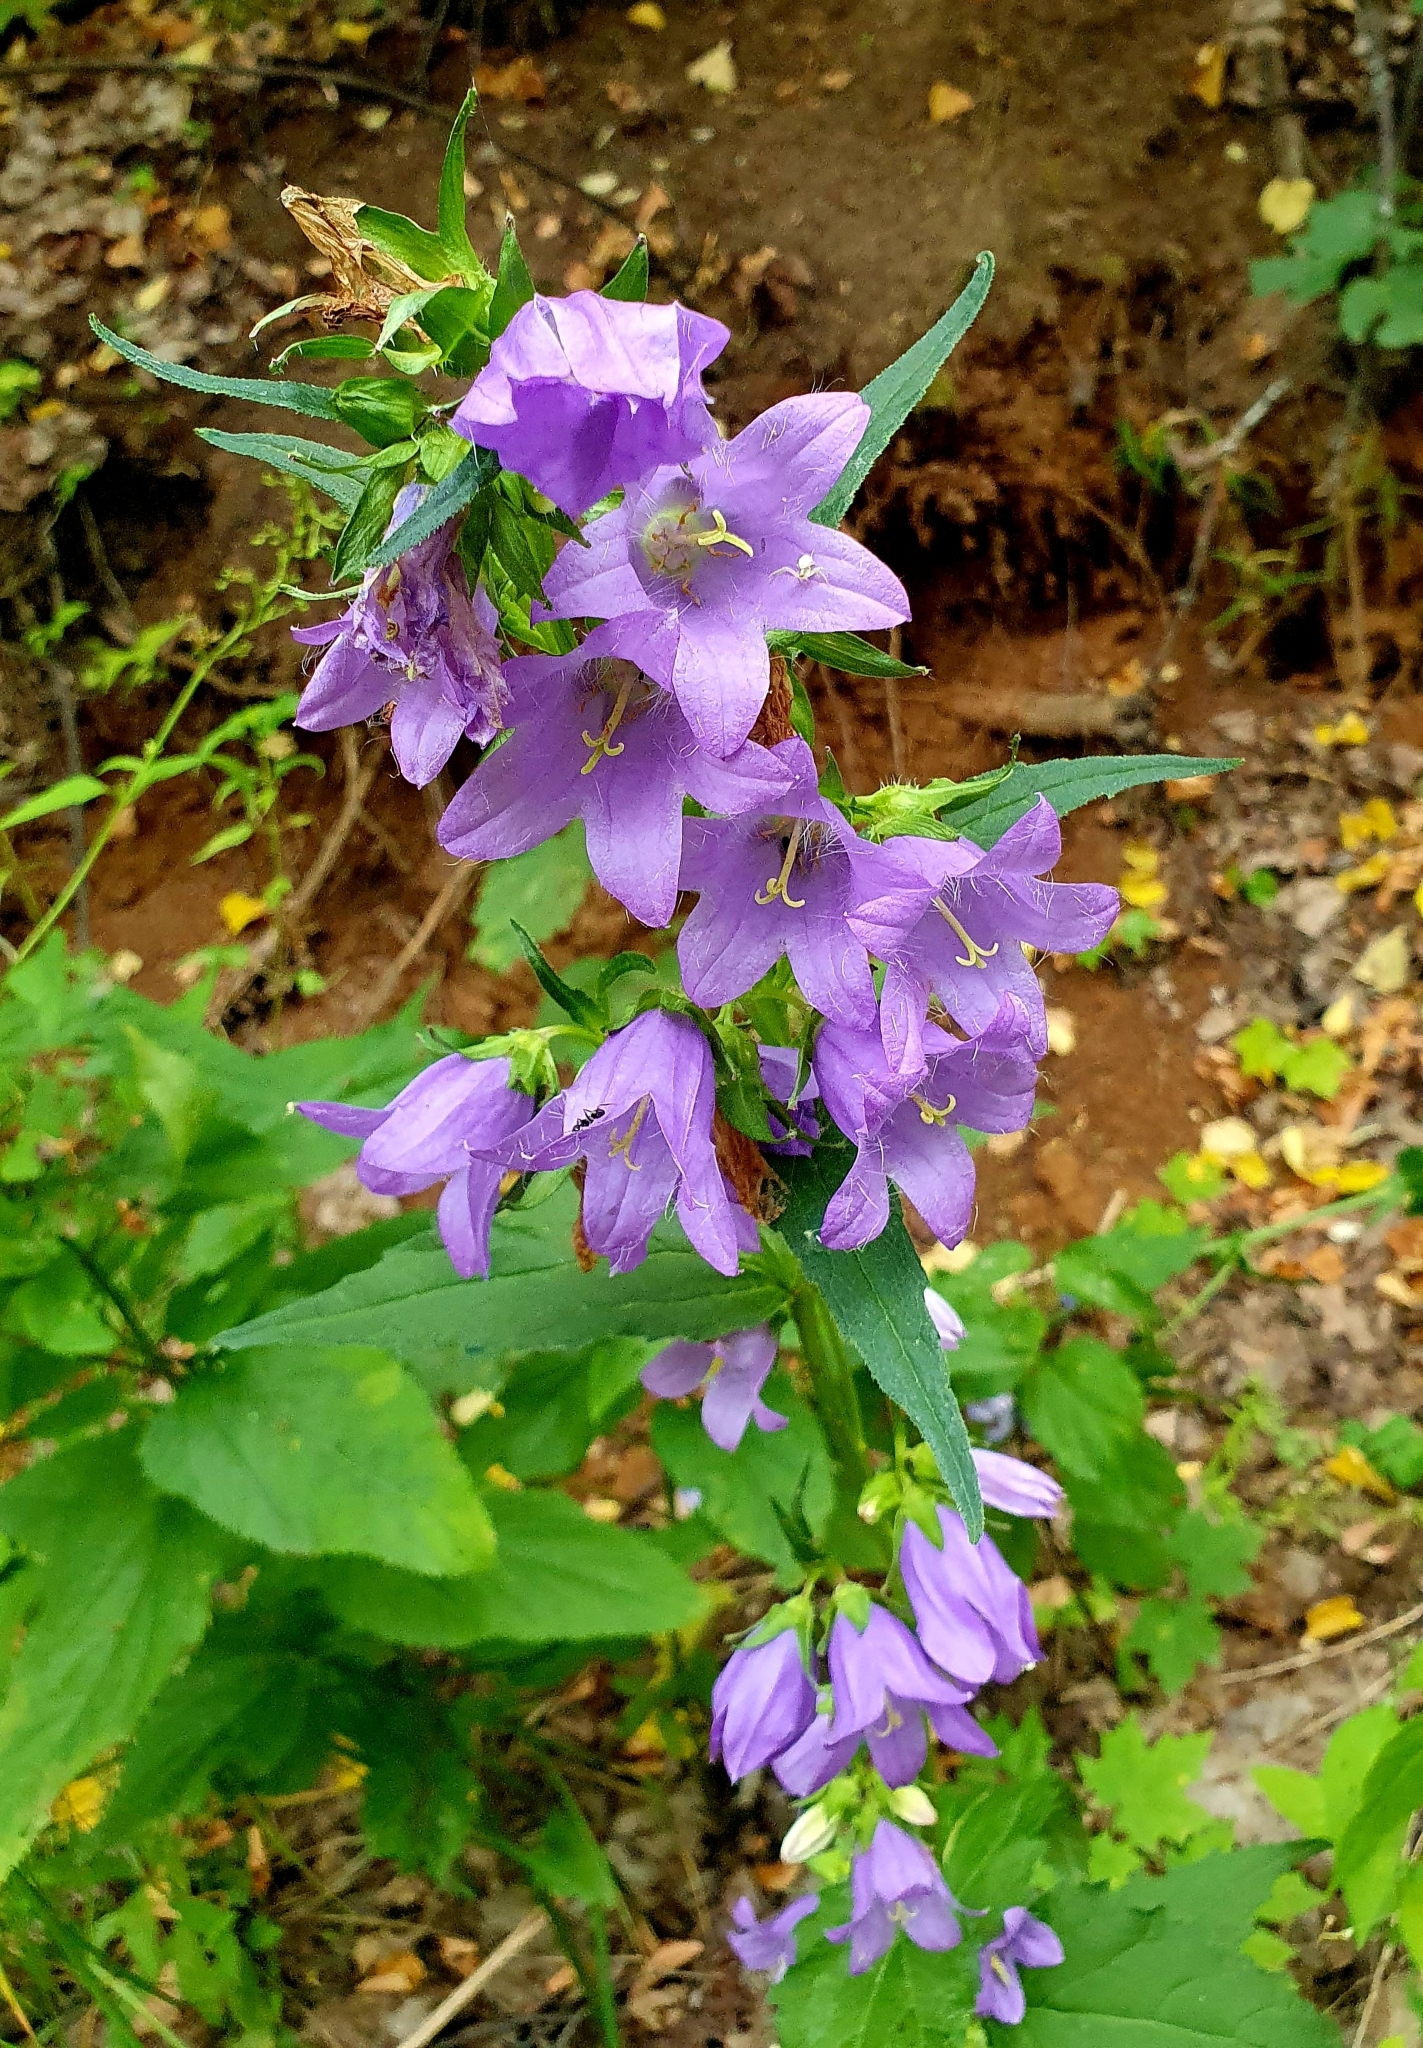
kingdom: Plantae
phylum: Tracheophyta
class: Magnoliopsida
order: Asterales
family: Campanulaceae
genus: Campanula
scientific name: Campanula trachelium
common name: Nettle-leaved bellflower
